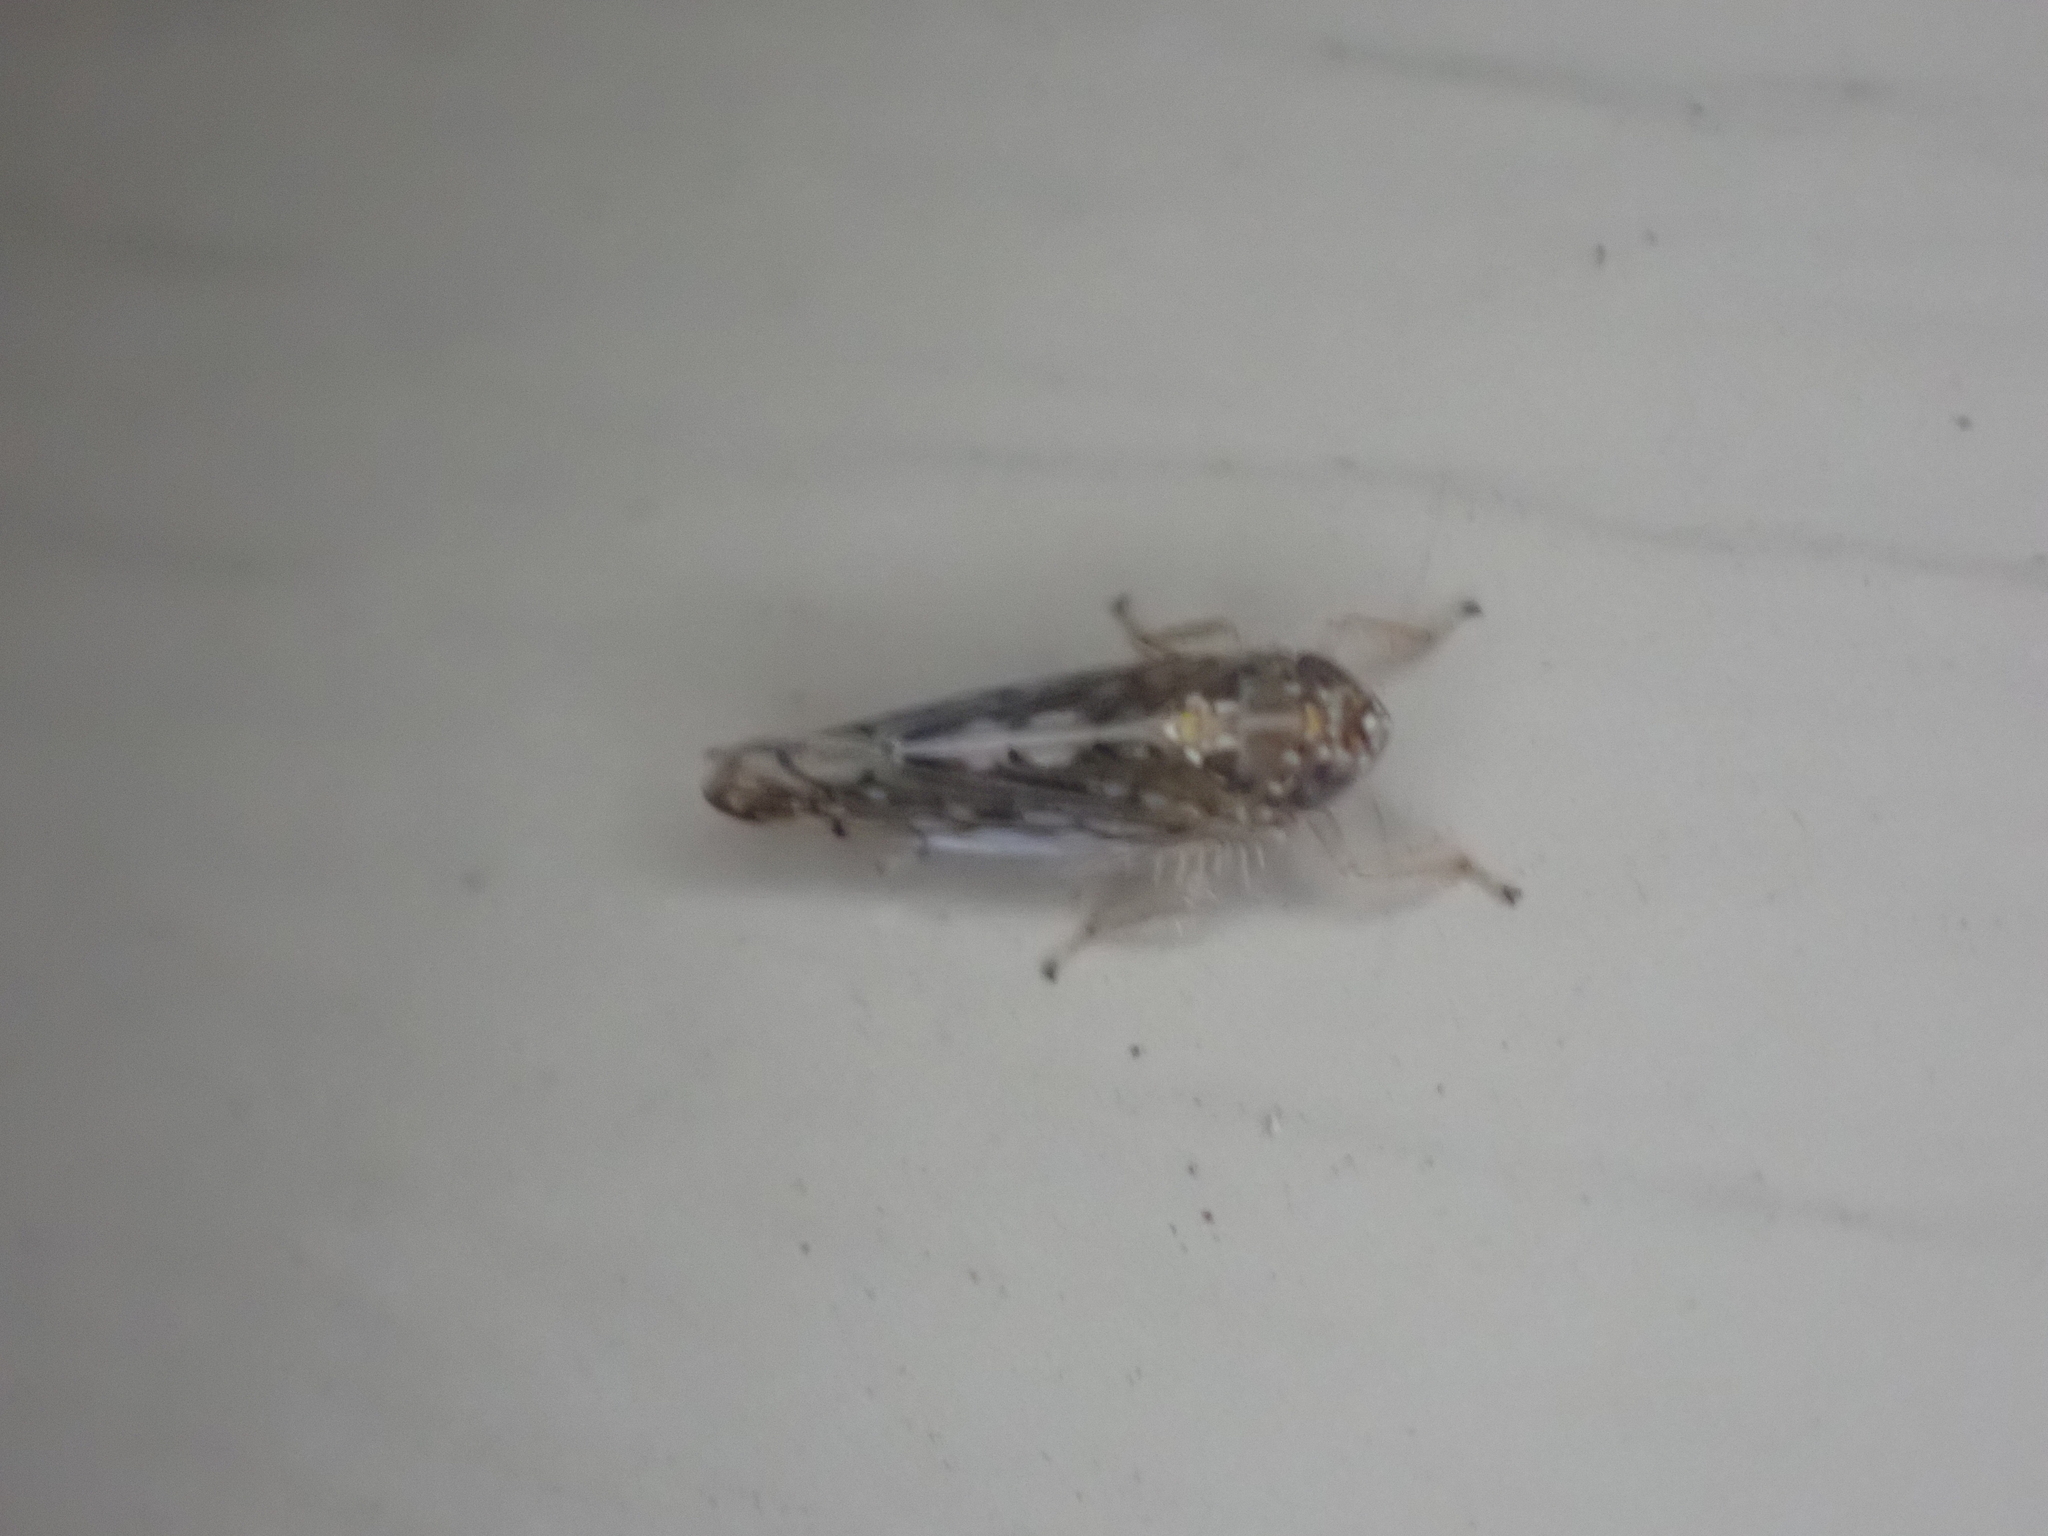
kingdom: Animalia
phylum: Arthropoda
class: Insecta
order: Hemiptera
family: Cicadellidae
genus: Osbornellus
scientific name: Osbornellus clarus
